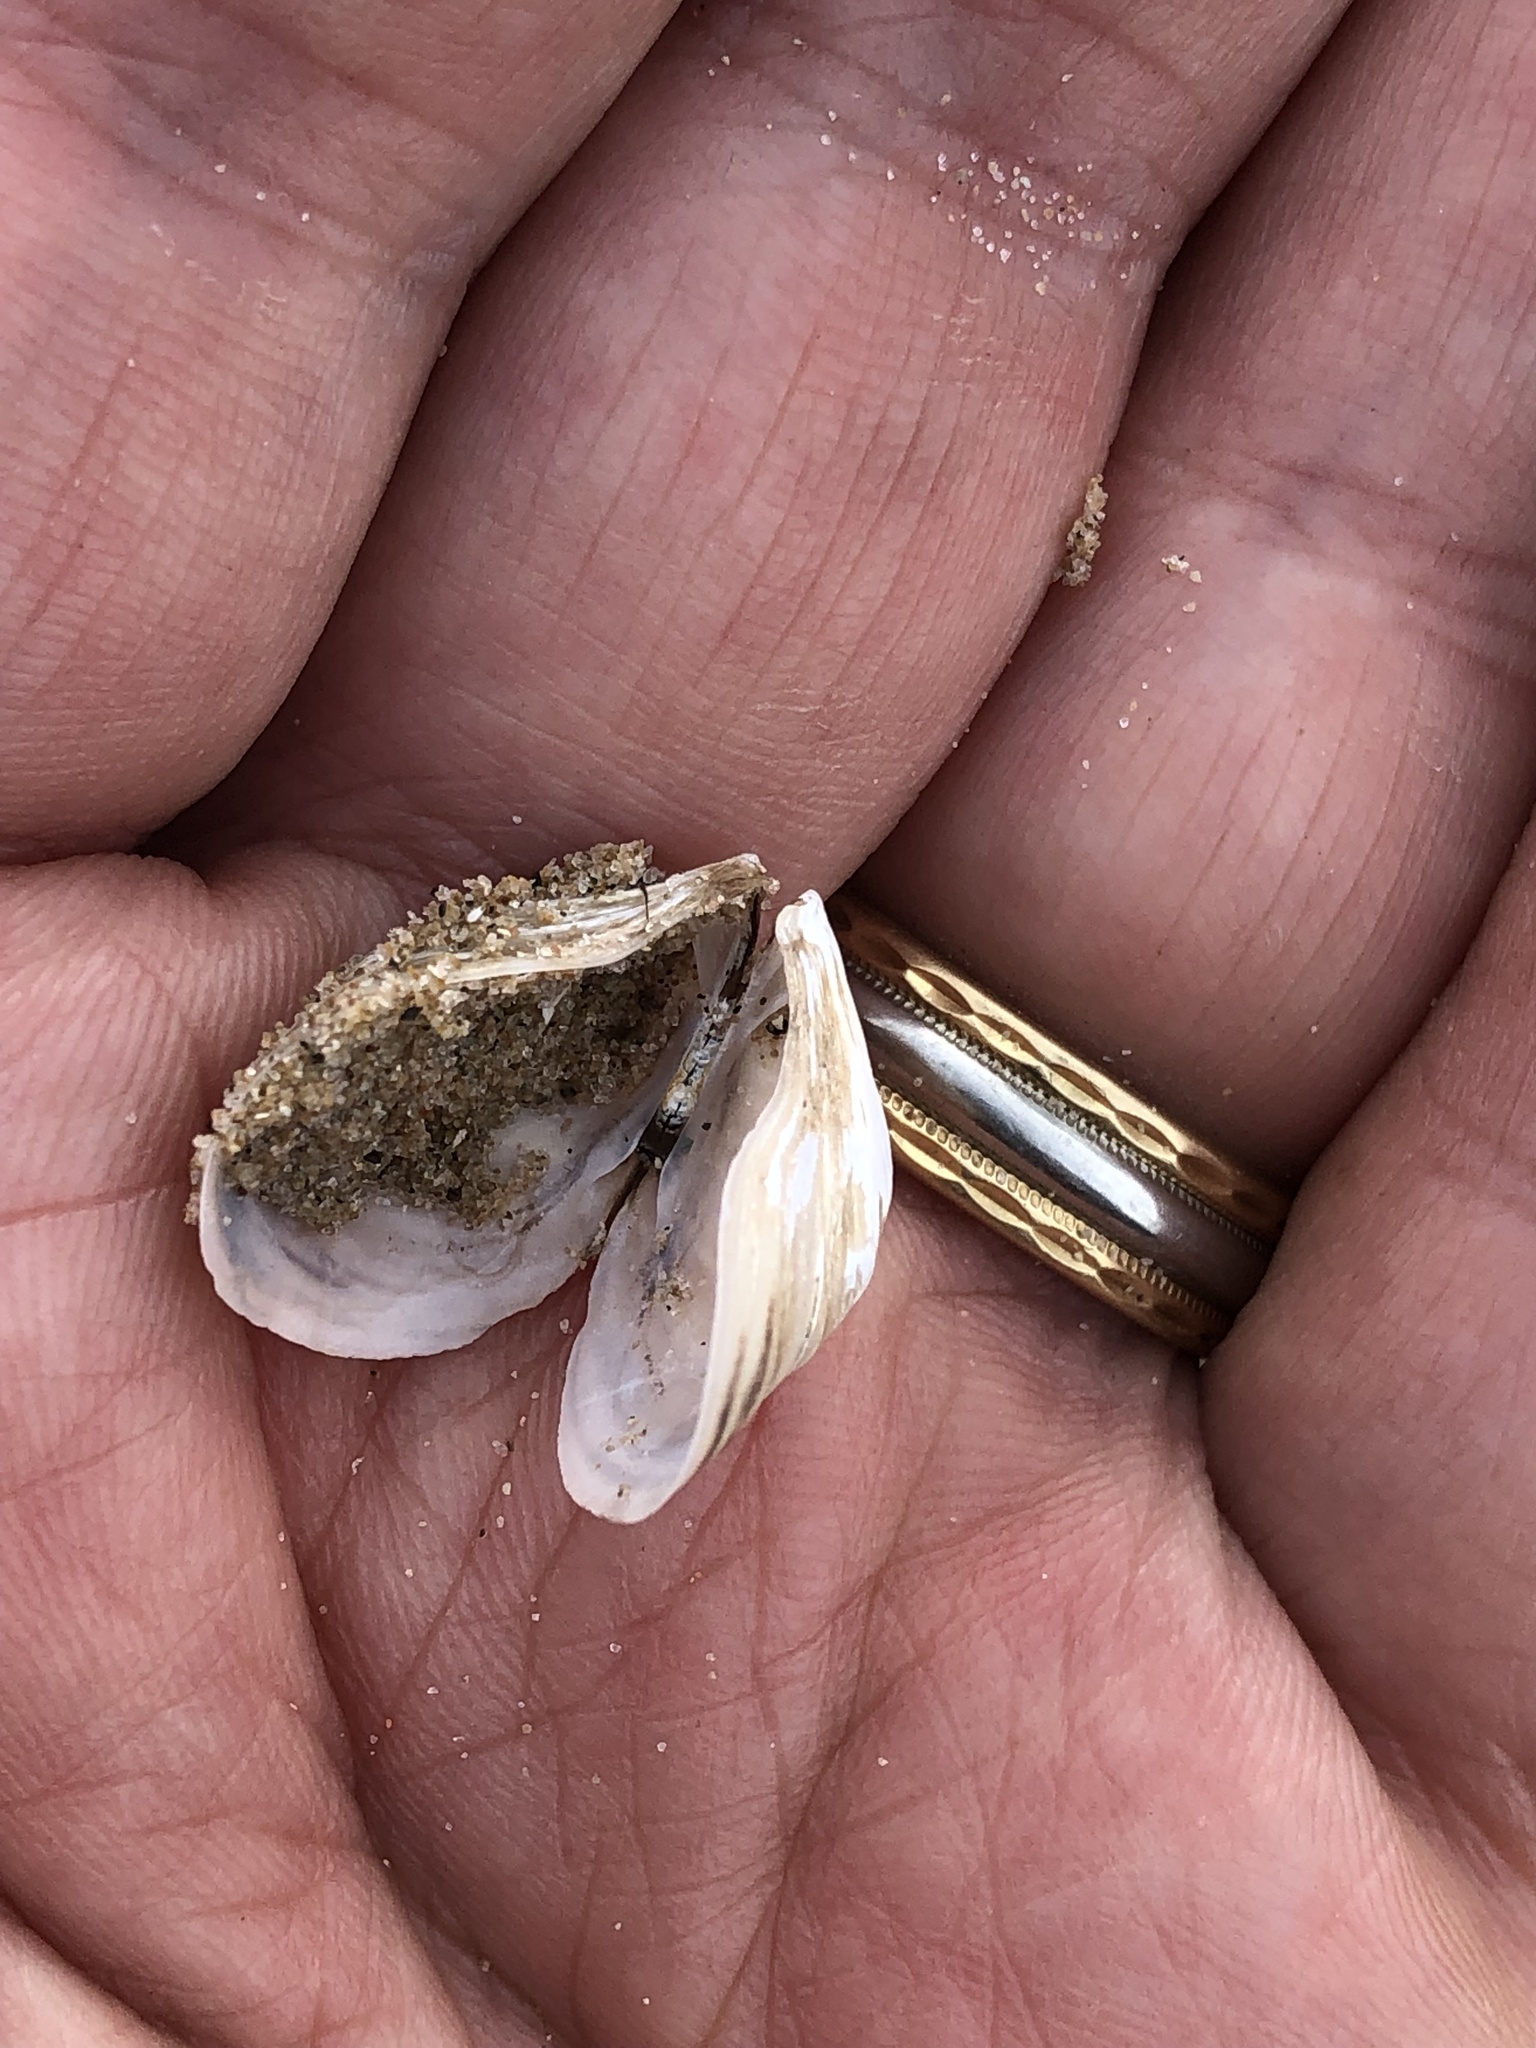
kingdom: Animalia
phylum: Mollusca
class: Bivalvia
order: Myida
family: Dreissenidae
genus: Dreissena
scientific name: Dreissena bugensis
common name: Quagga mussel
